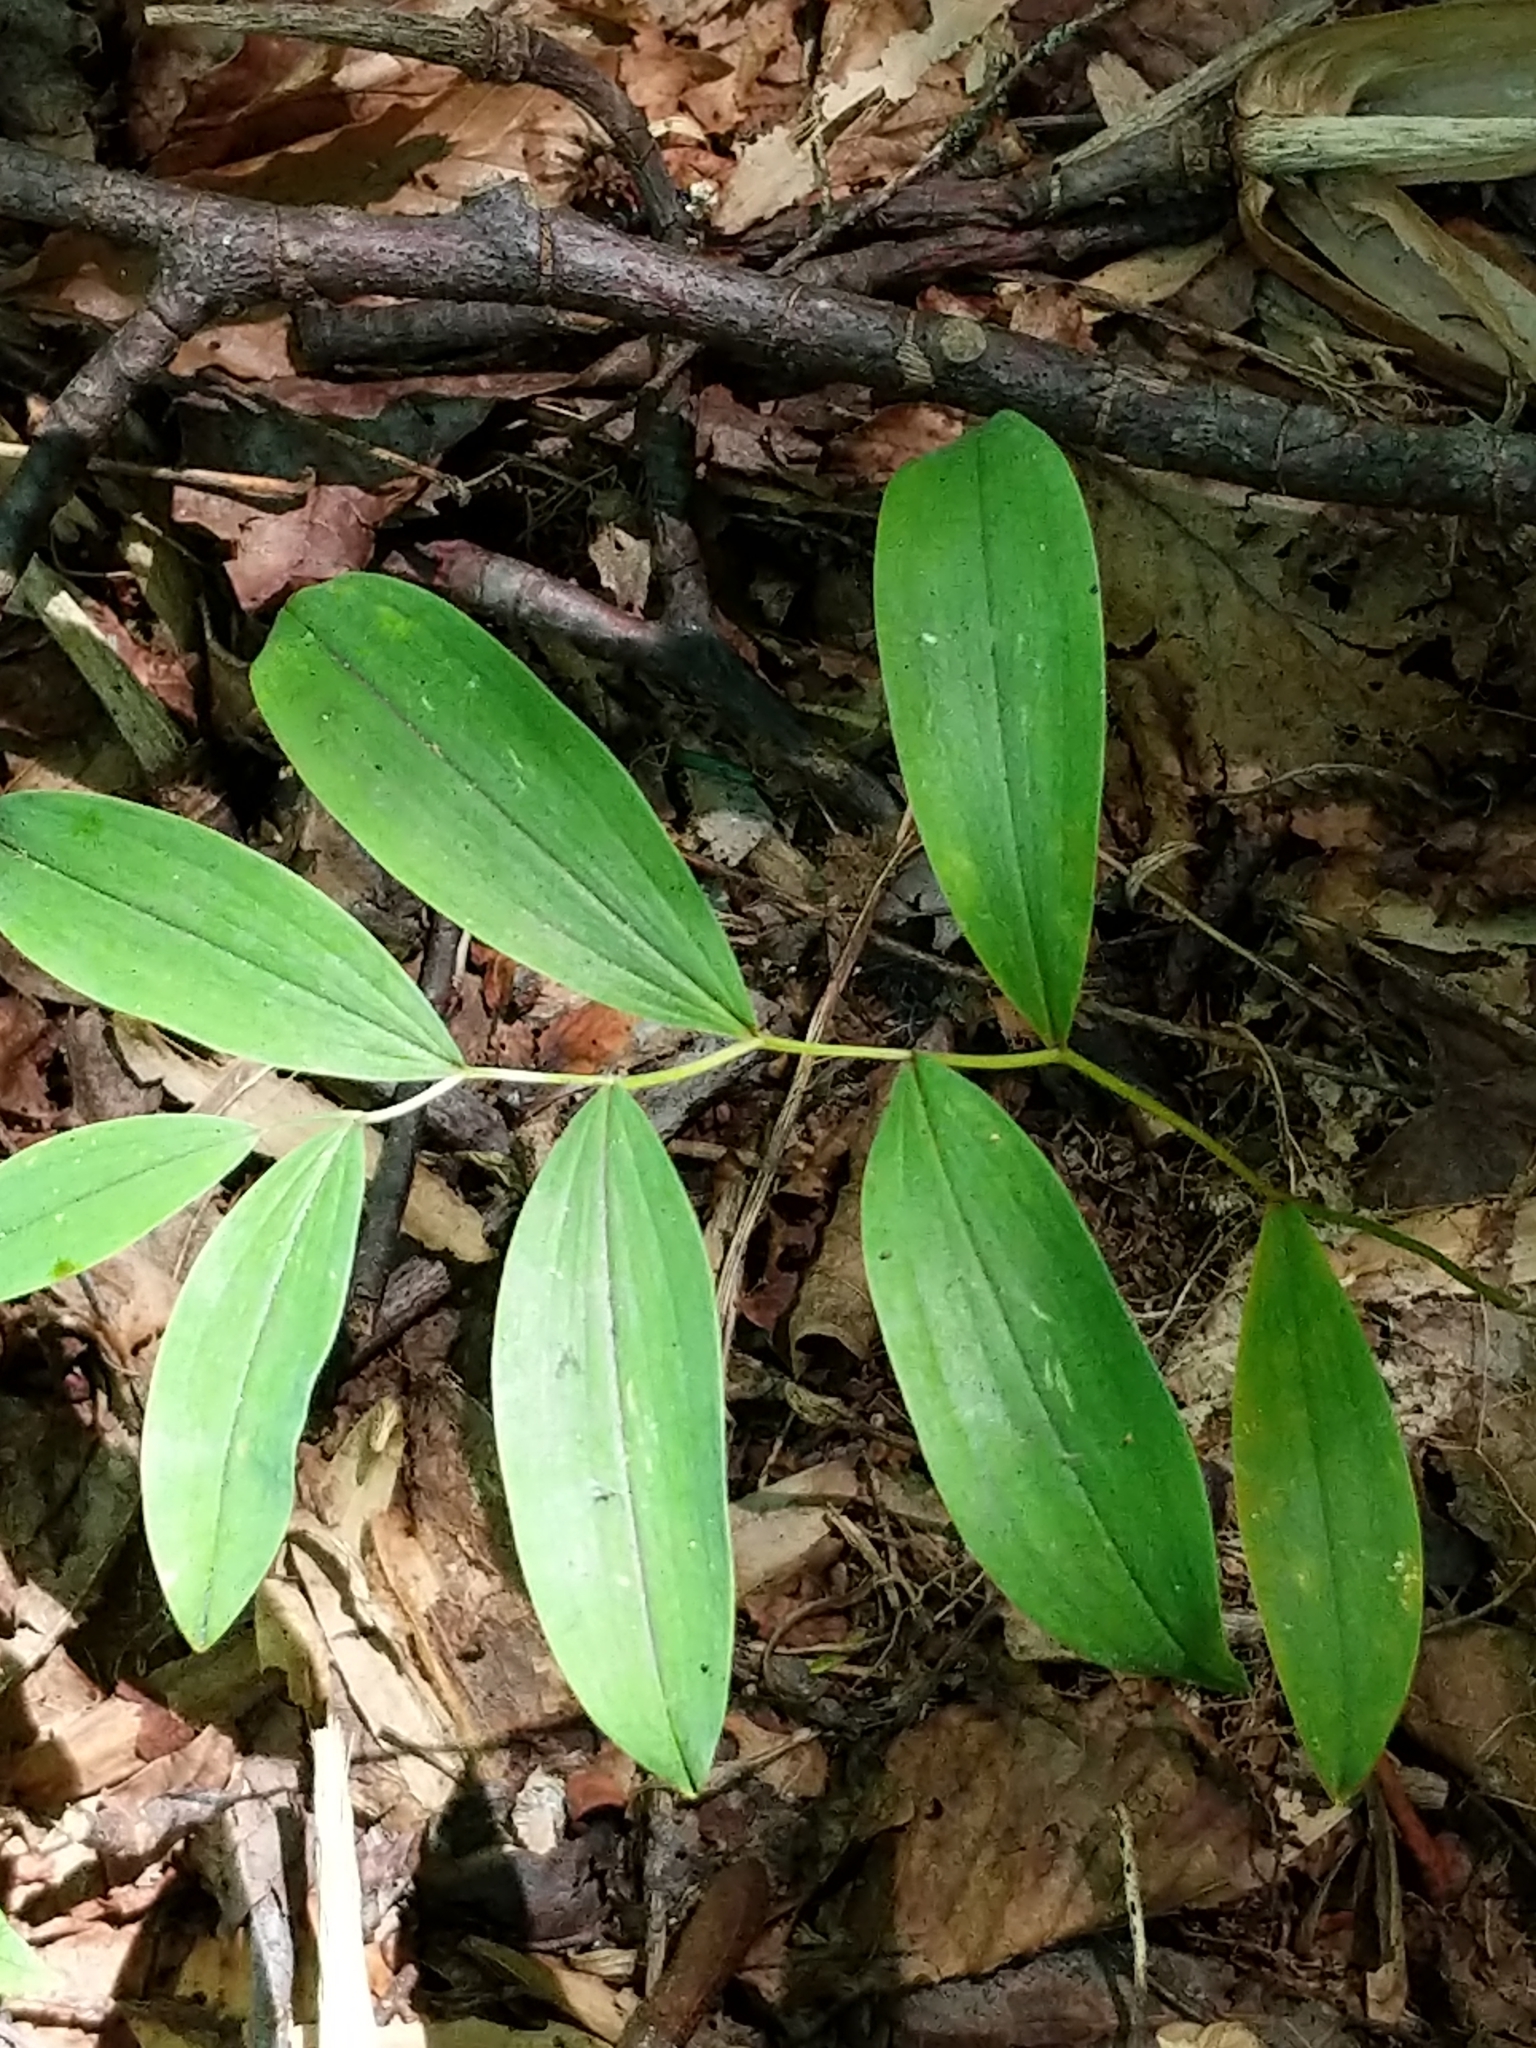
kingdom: Plantae
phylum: Tracheophyta
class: Liliopsida
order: Liliales
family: Colchicaceae
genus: Uvularia
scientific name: Uvularia sessilifolia
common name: Straw-lily
